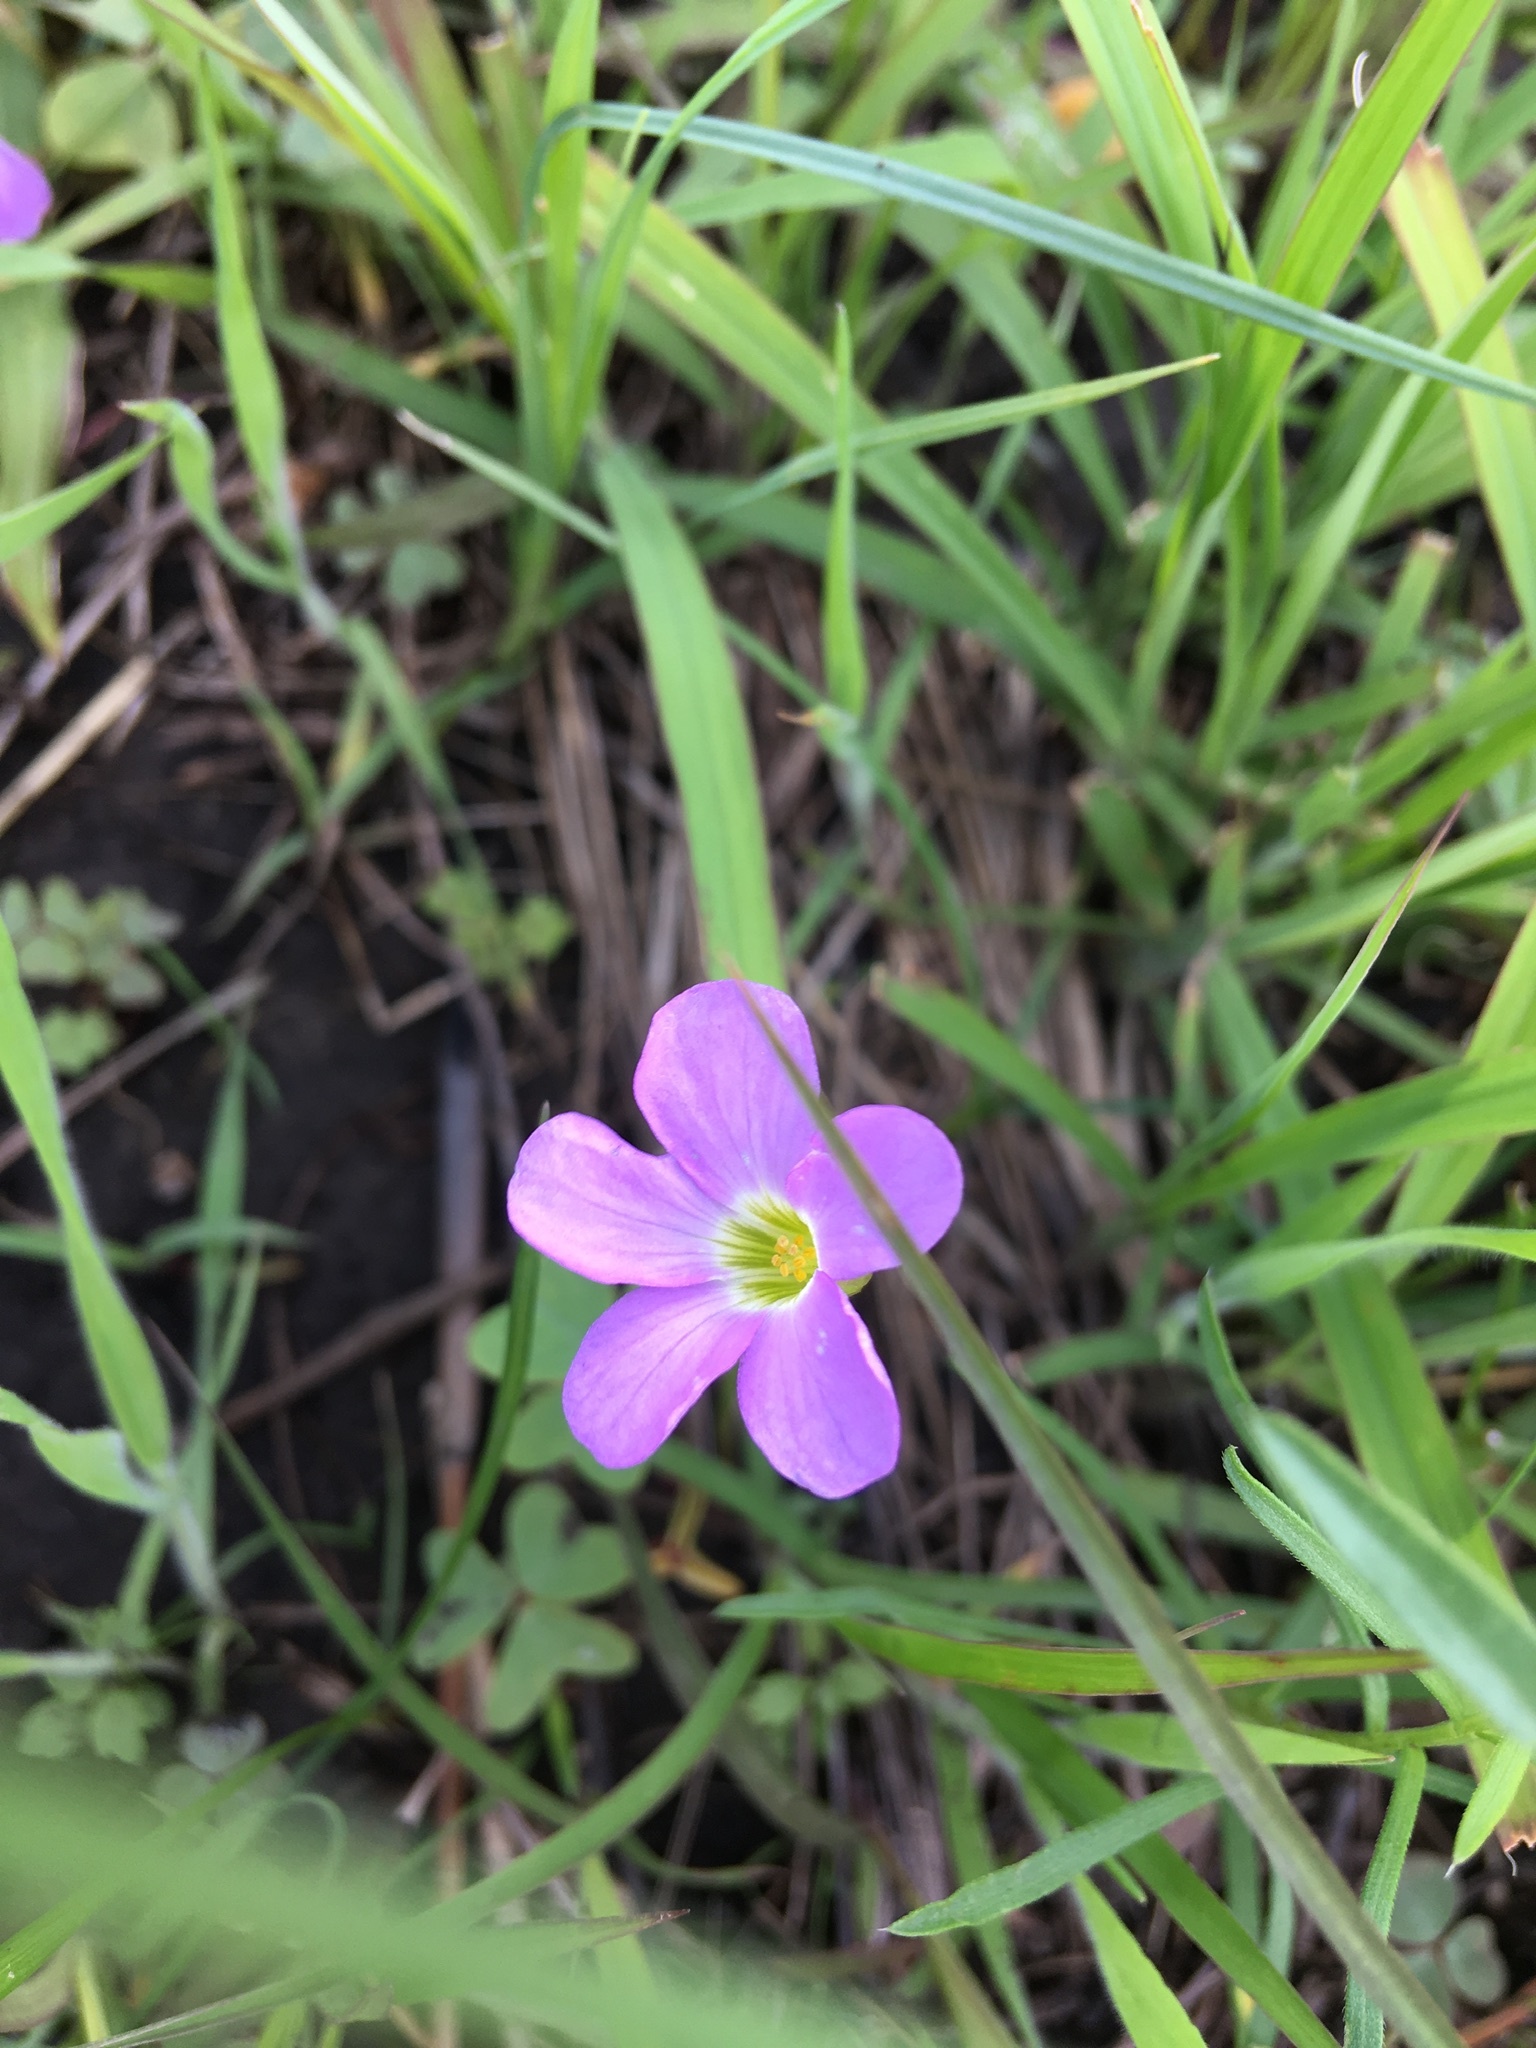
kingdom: Plantae
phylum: Tracheophyta
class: Magnoliopsida
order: Oxalidales
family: Oxalidaceae
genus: Oxalis
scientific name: Oxalis violacea
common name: Violet wood-sorrel
